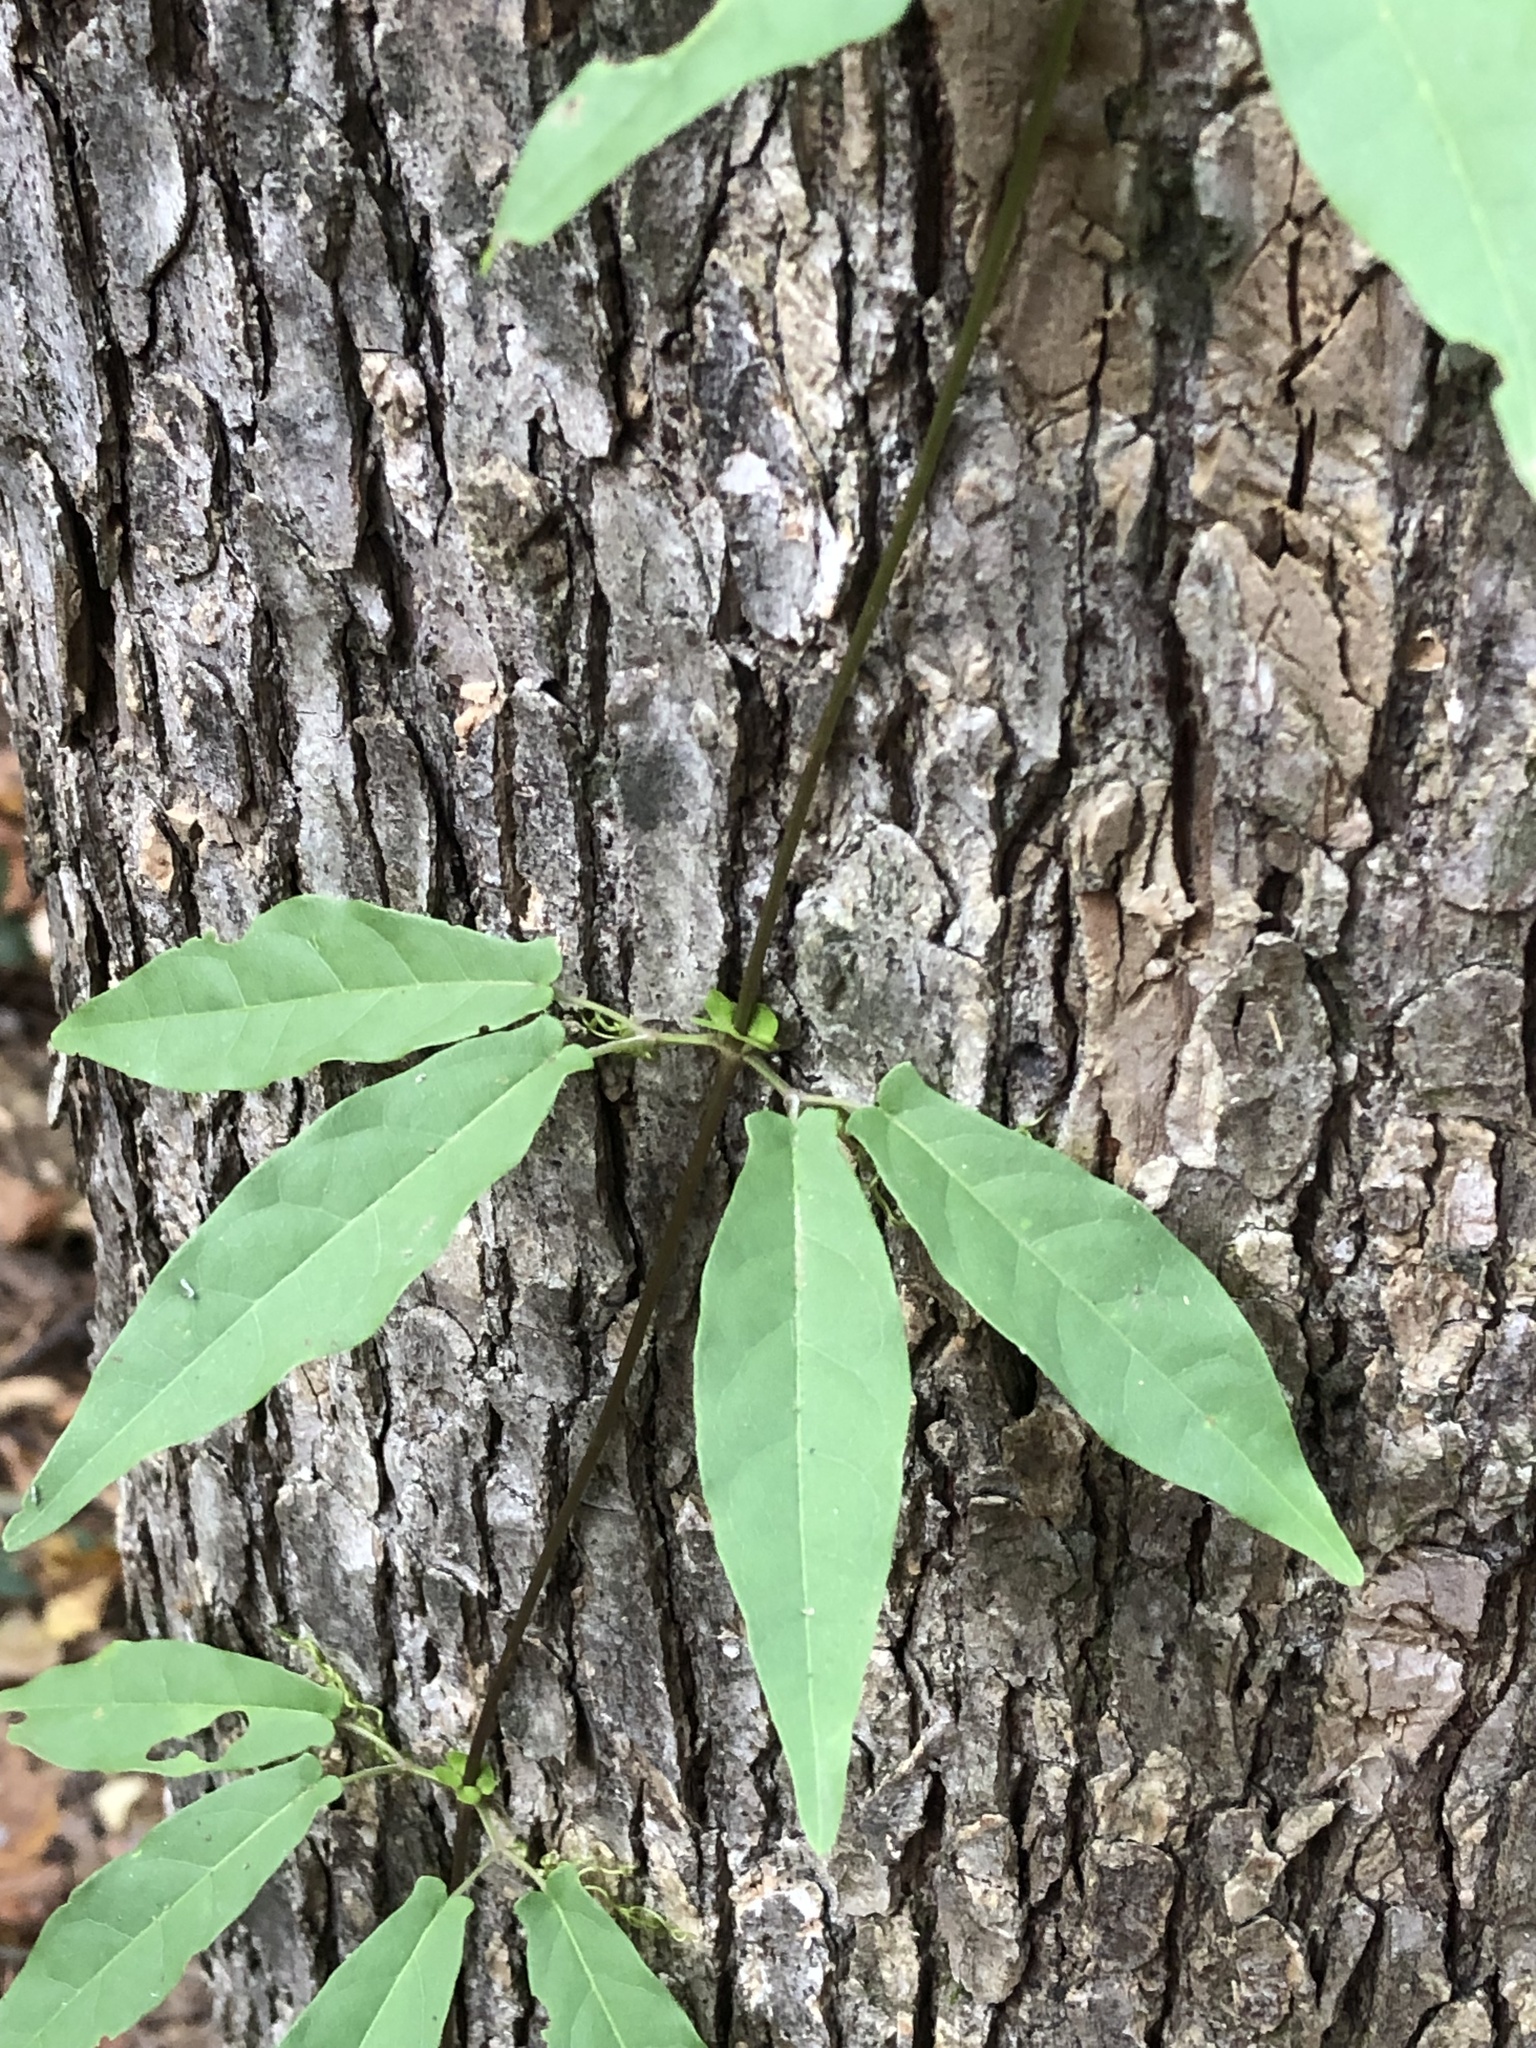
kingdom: Plantae
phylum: Tracheophyta
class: Magnoliopsida
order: Lamiales
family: Bignoniaceae
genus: Bignonia
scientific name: Bignonia capreolata
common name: Crossvine
